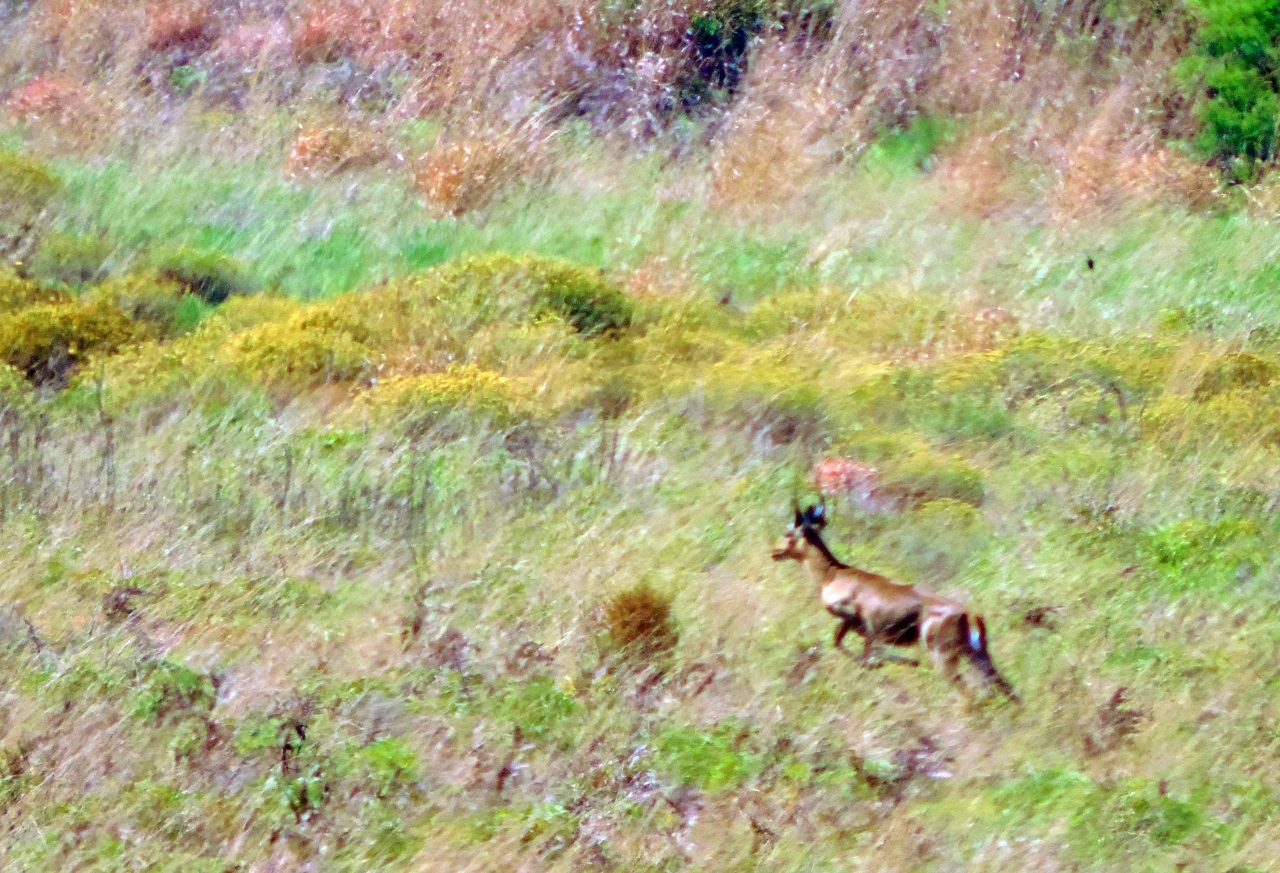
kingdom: Animalia
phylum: Chordata
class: Mammalia
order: Artiodactyla
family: Bovidae
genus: Redunca
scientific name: Redunca arundinum
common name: Southern reedbuck
